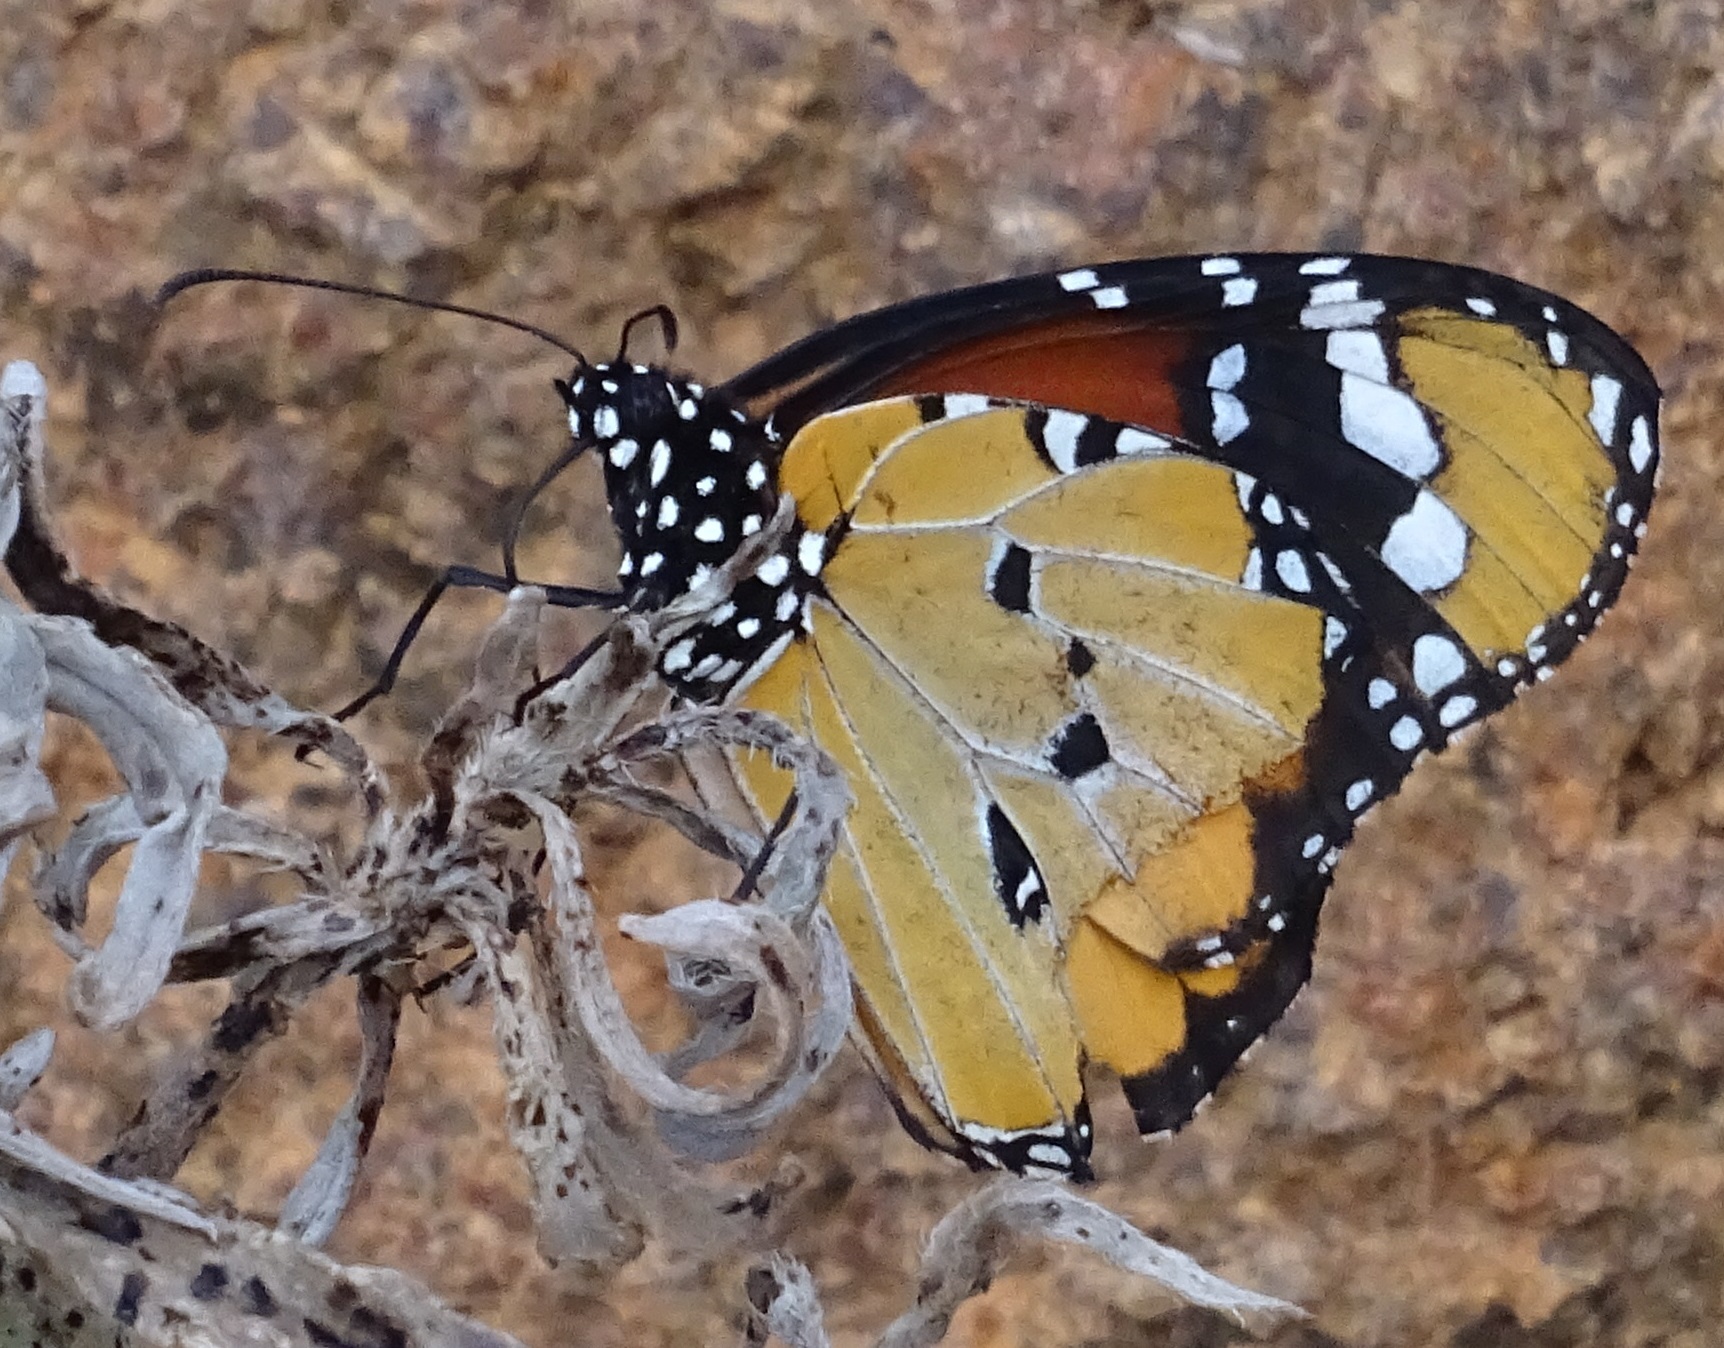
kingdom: Animalia
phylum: Arthropoda
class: Insecta
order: Lepidoptera
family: Nymphalidae
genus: Danaus
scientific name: Danaus chrysippus
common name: Plain tiger
